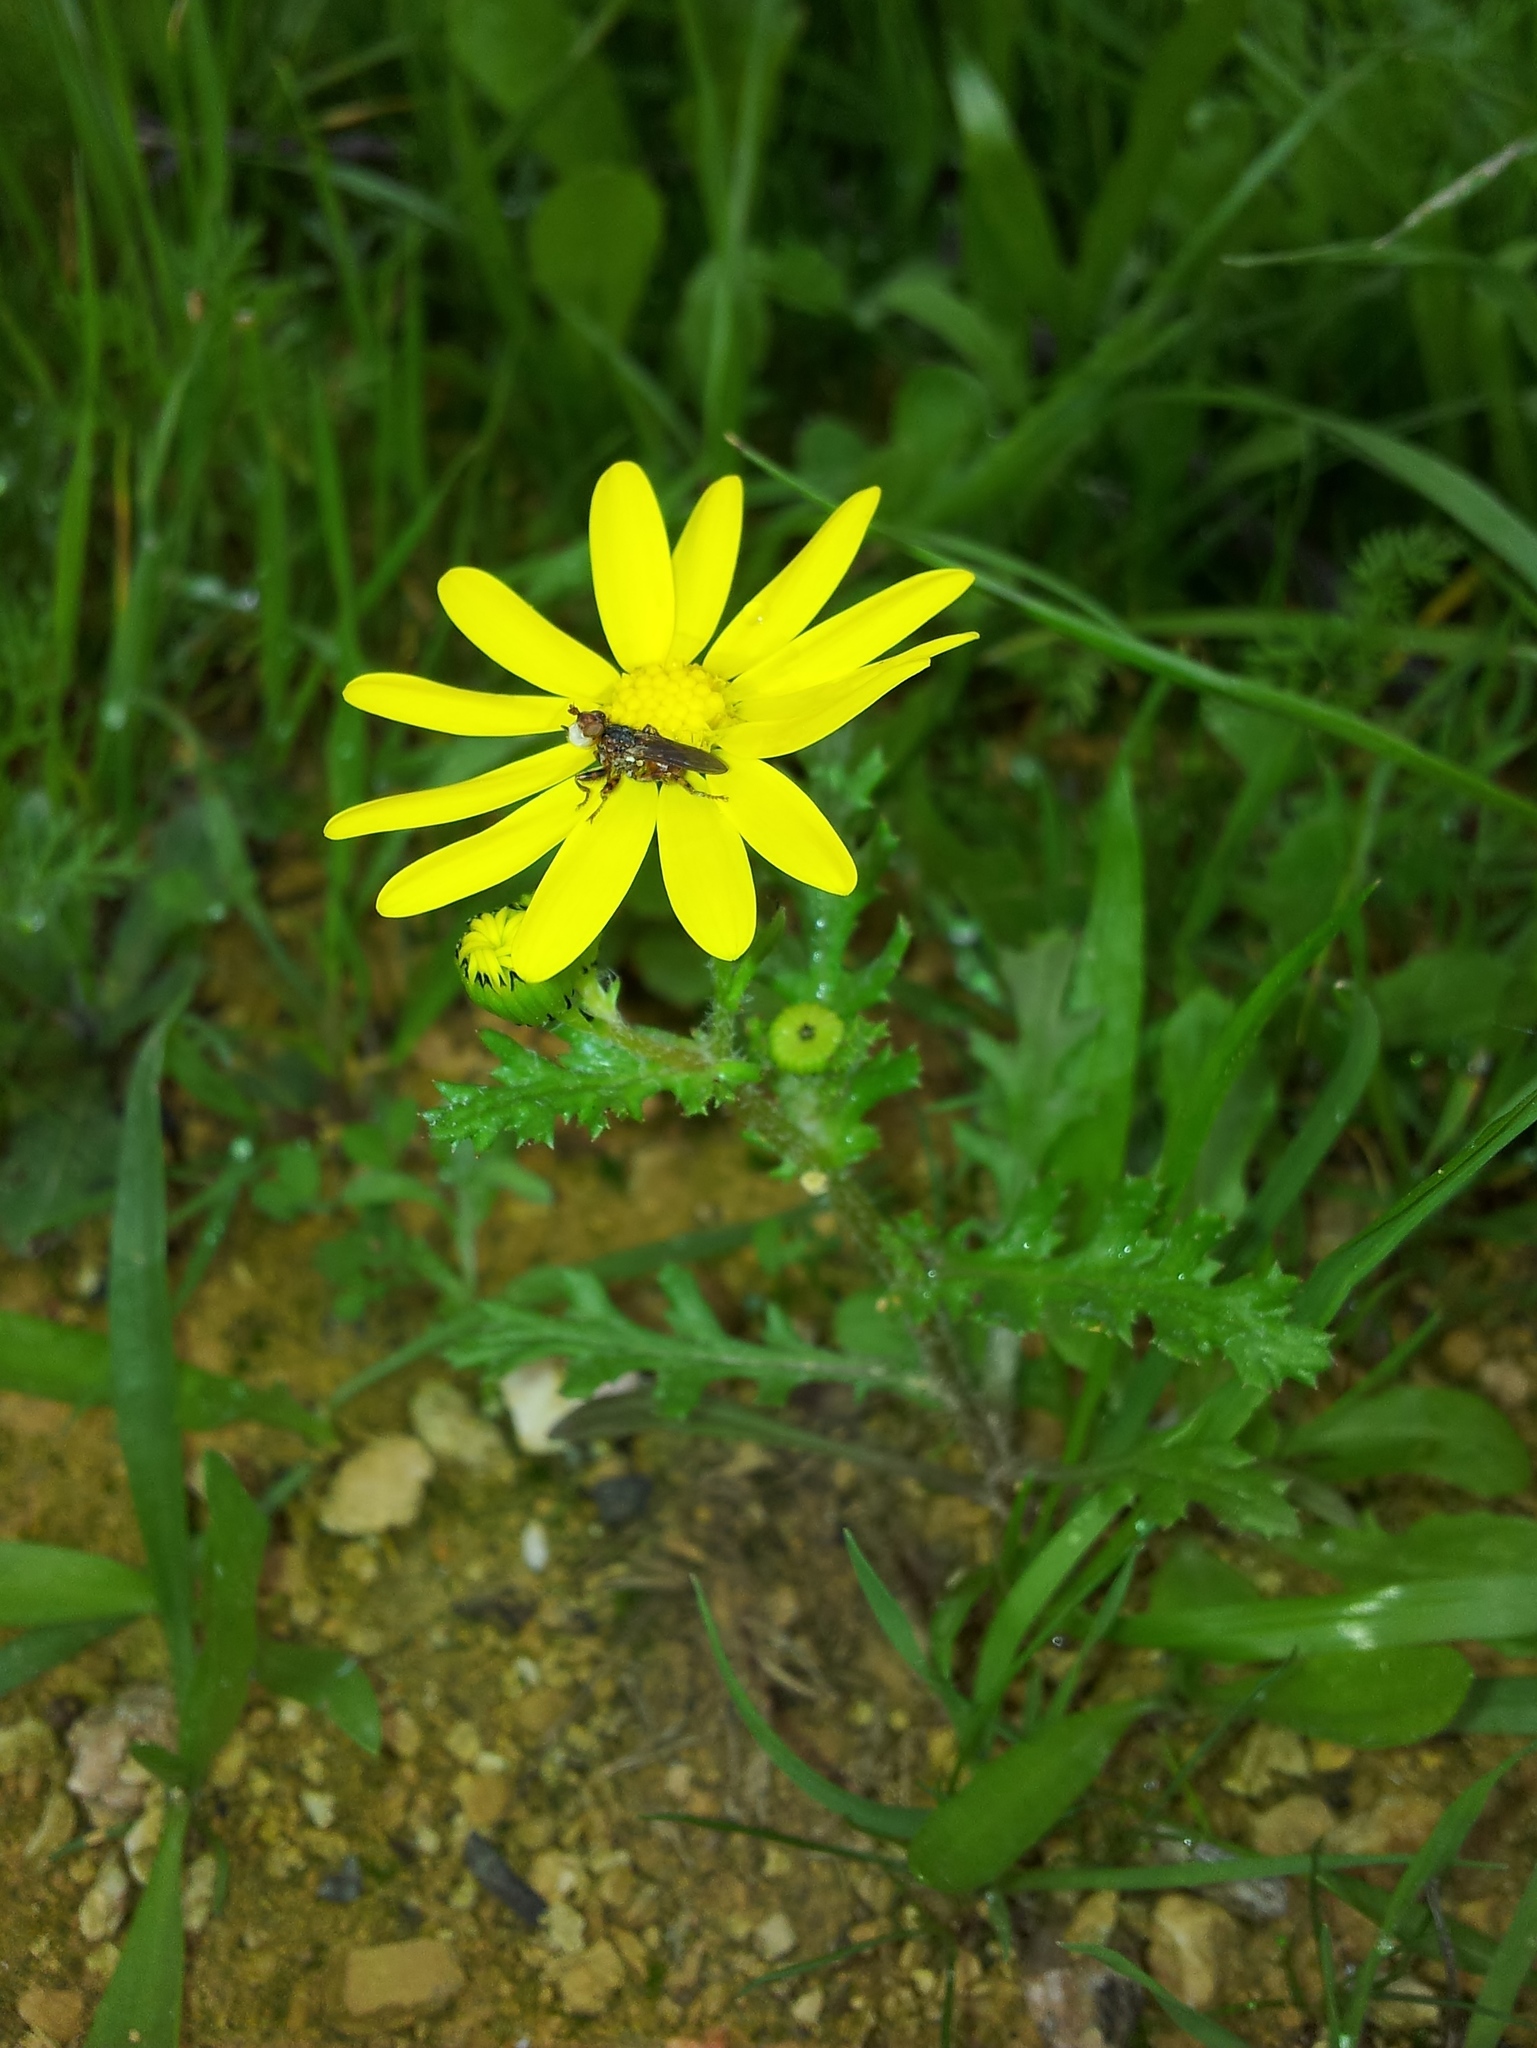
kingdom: Plantae
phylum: Tracheophyta
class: Magnoliopsida
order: Asterales
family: Asteraceae
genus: Senecio
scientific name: Senecio vernalis
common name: Eastern groundsel
